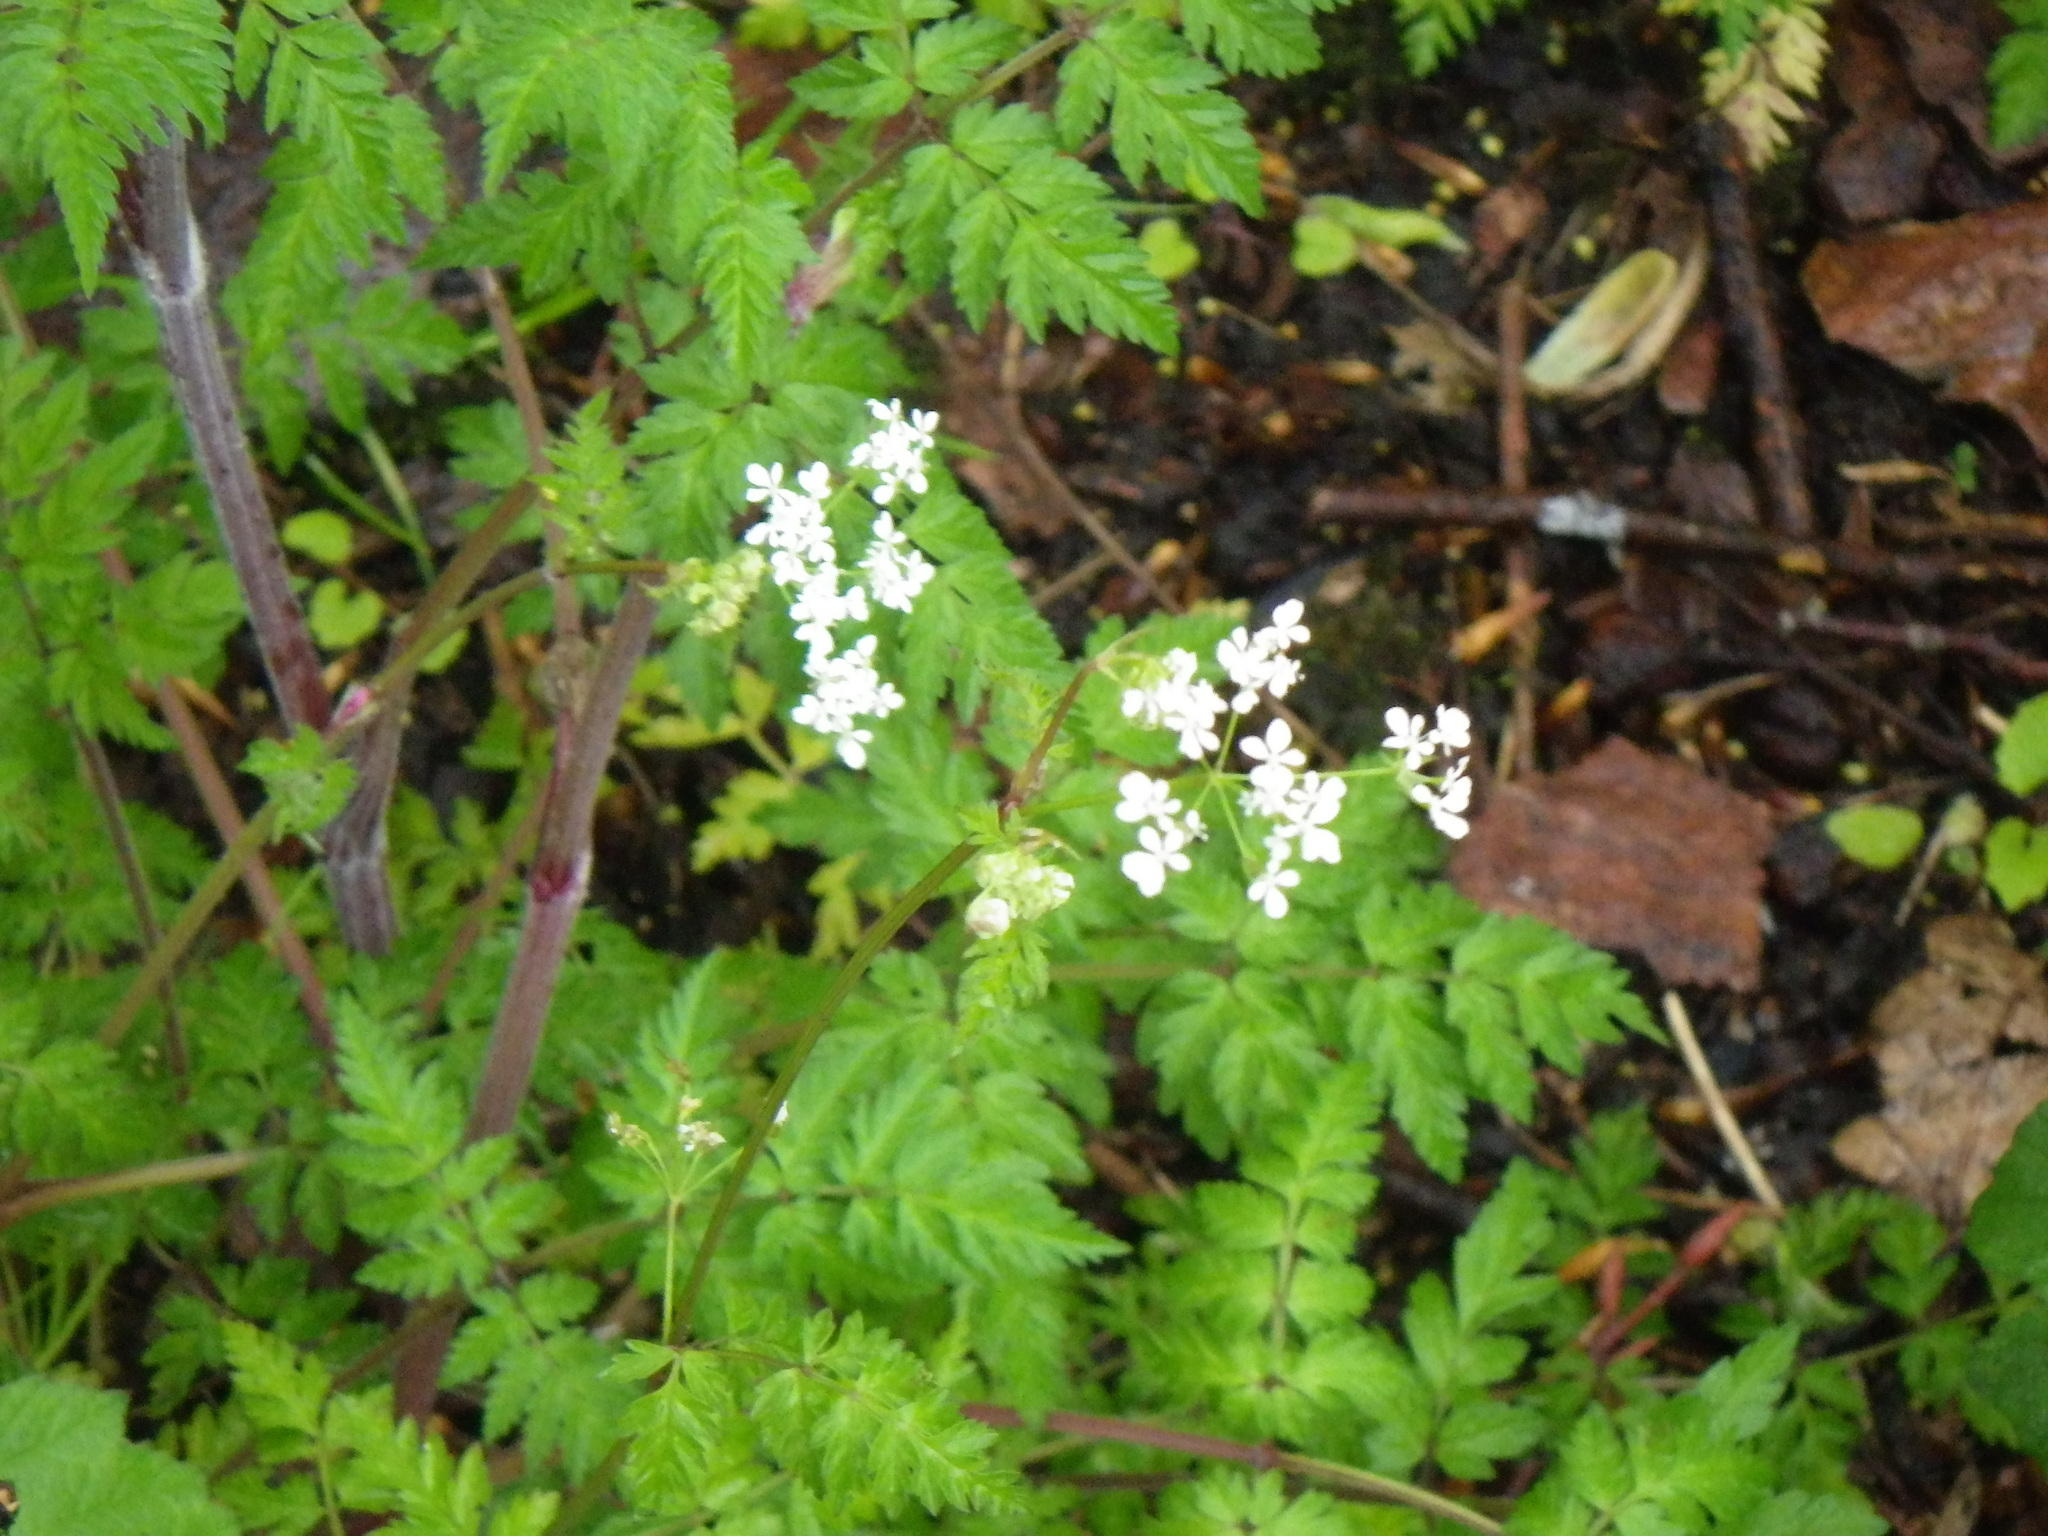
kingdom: Plantae
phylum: Tracheophyta
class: Magnoliopsida
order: Apiales
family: Apiaceae
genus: Anthriscus
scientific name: Anthriscus sylvestris
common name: Cow parsley
